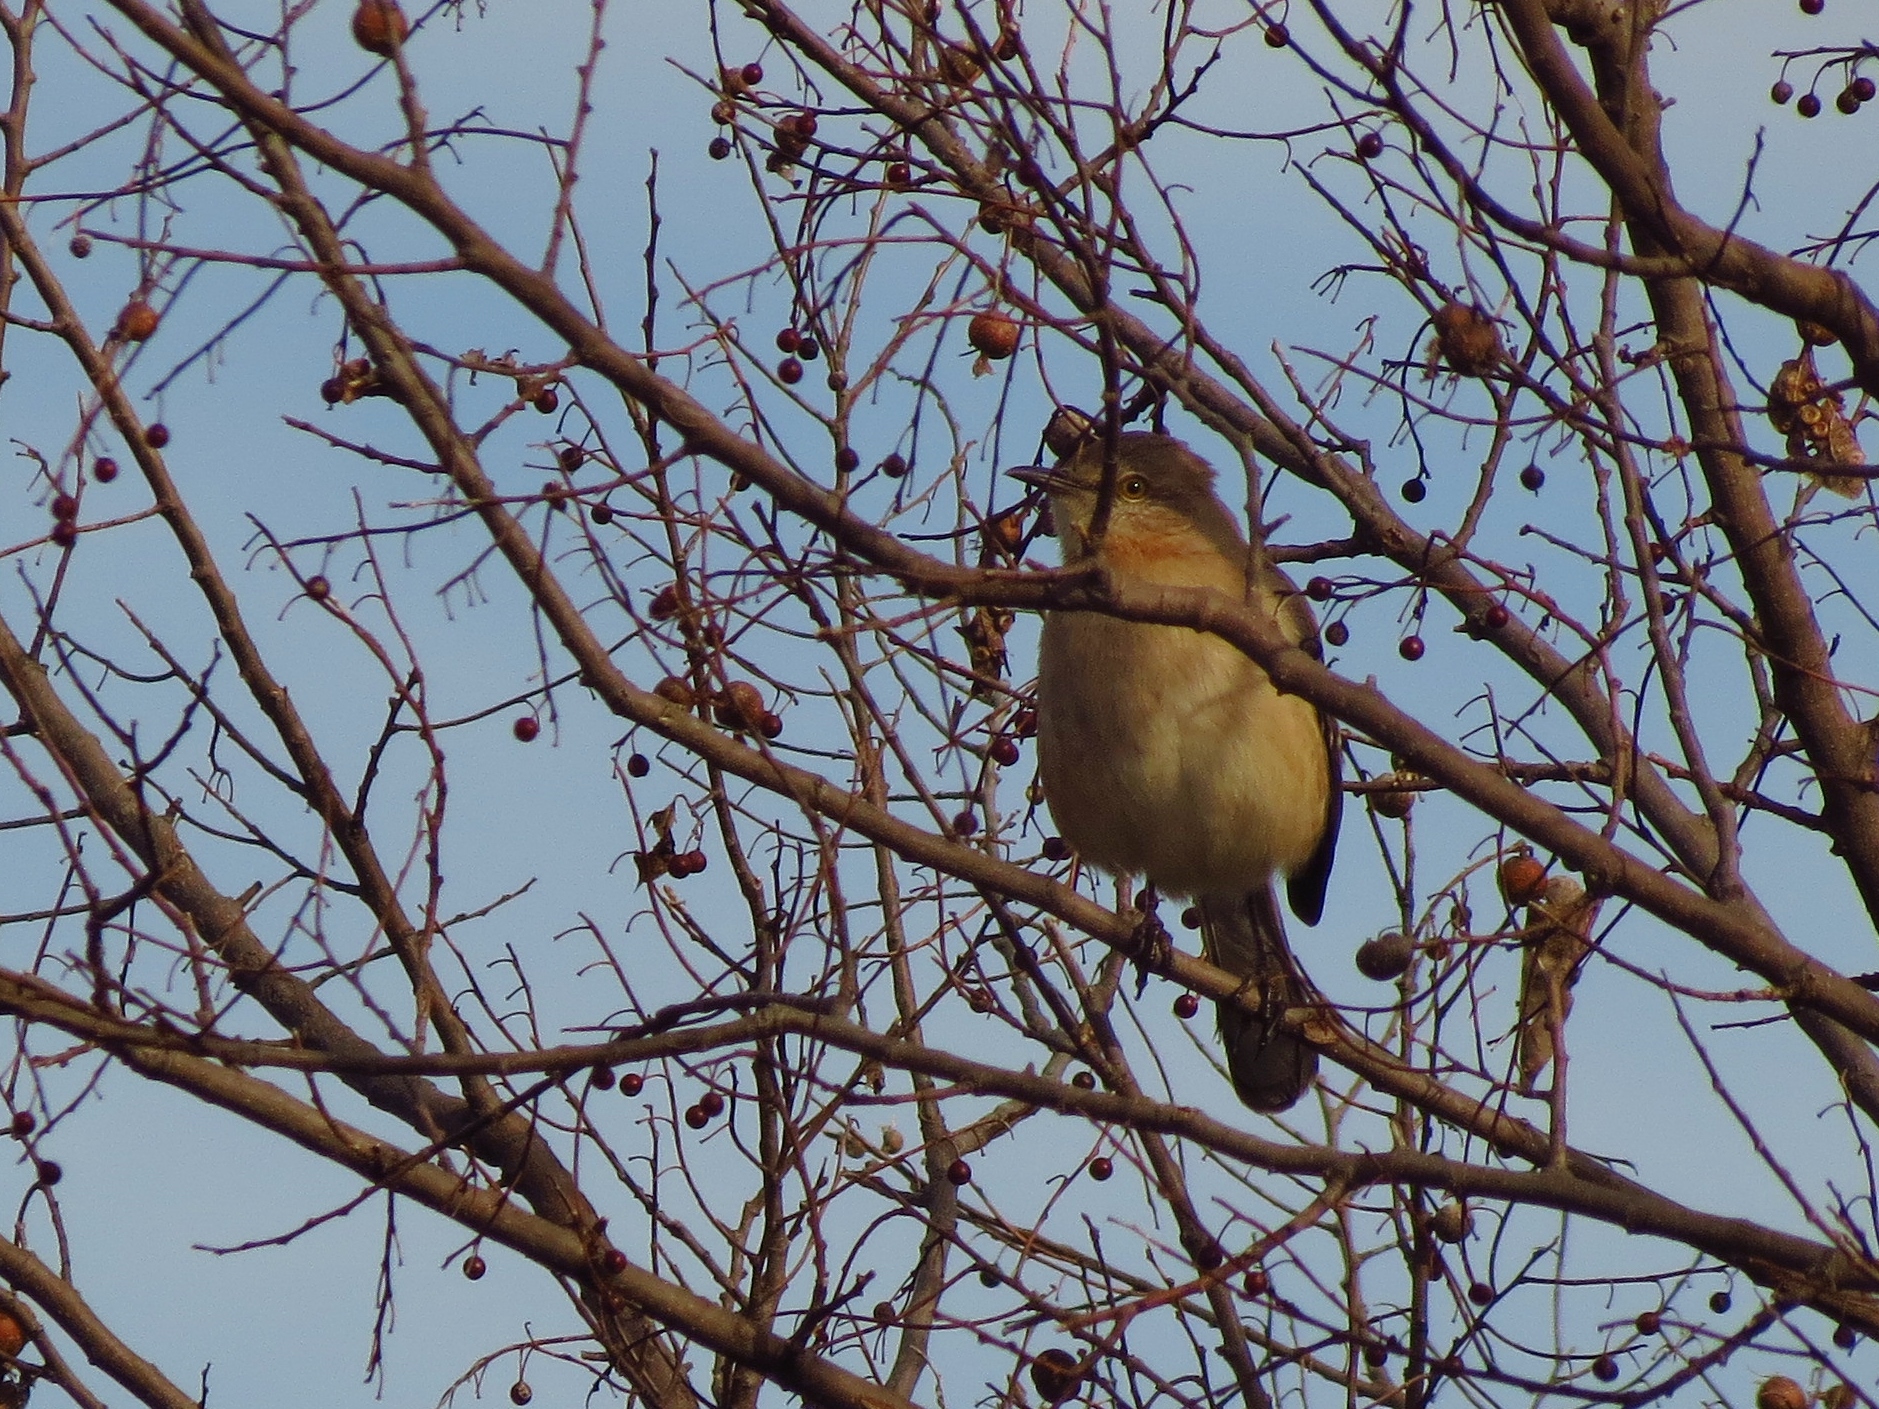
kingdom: Animalia
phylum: Chordata
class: Aves
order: Passeriformes
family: Mimidae
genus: Mimus
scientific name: Mimus polyglottos
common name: Northern mockingbird
